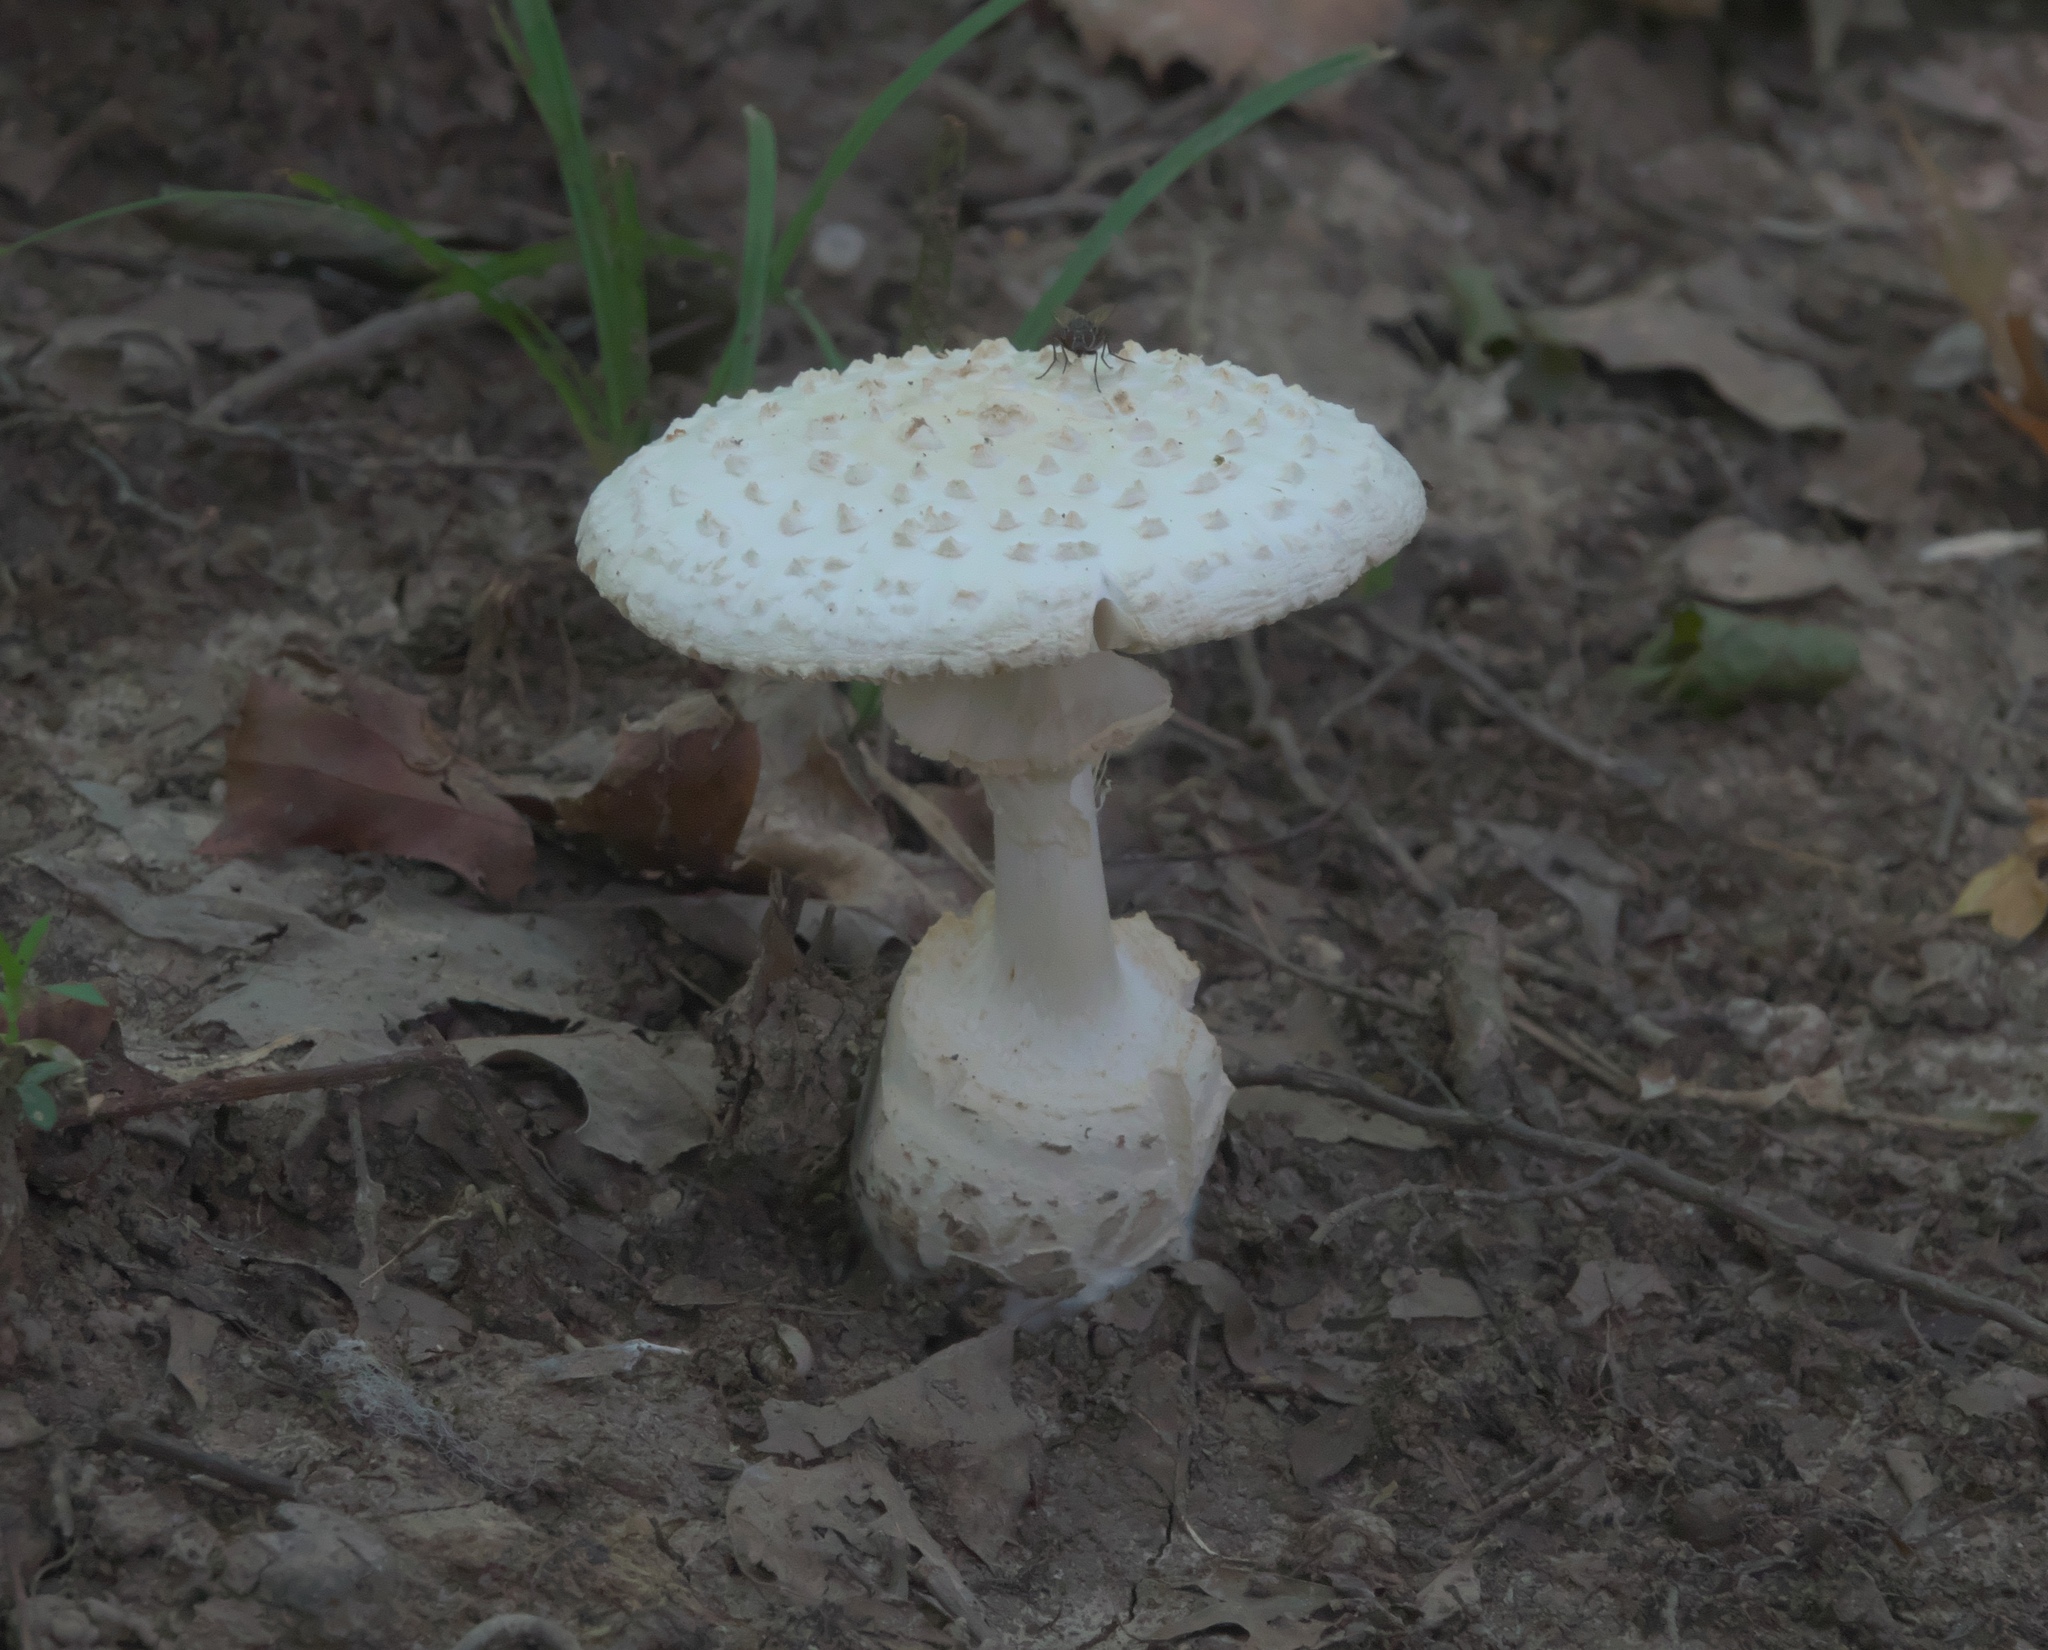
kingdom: Fungi
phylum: Basidiomycota
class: Agaricomycetes
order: Agaricales
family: Amanitaceae
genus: Amanita
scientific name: Amanita abrupta
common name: American abrupt-bulbed lepidella
